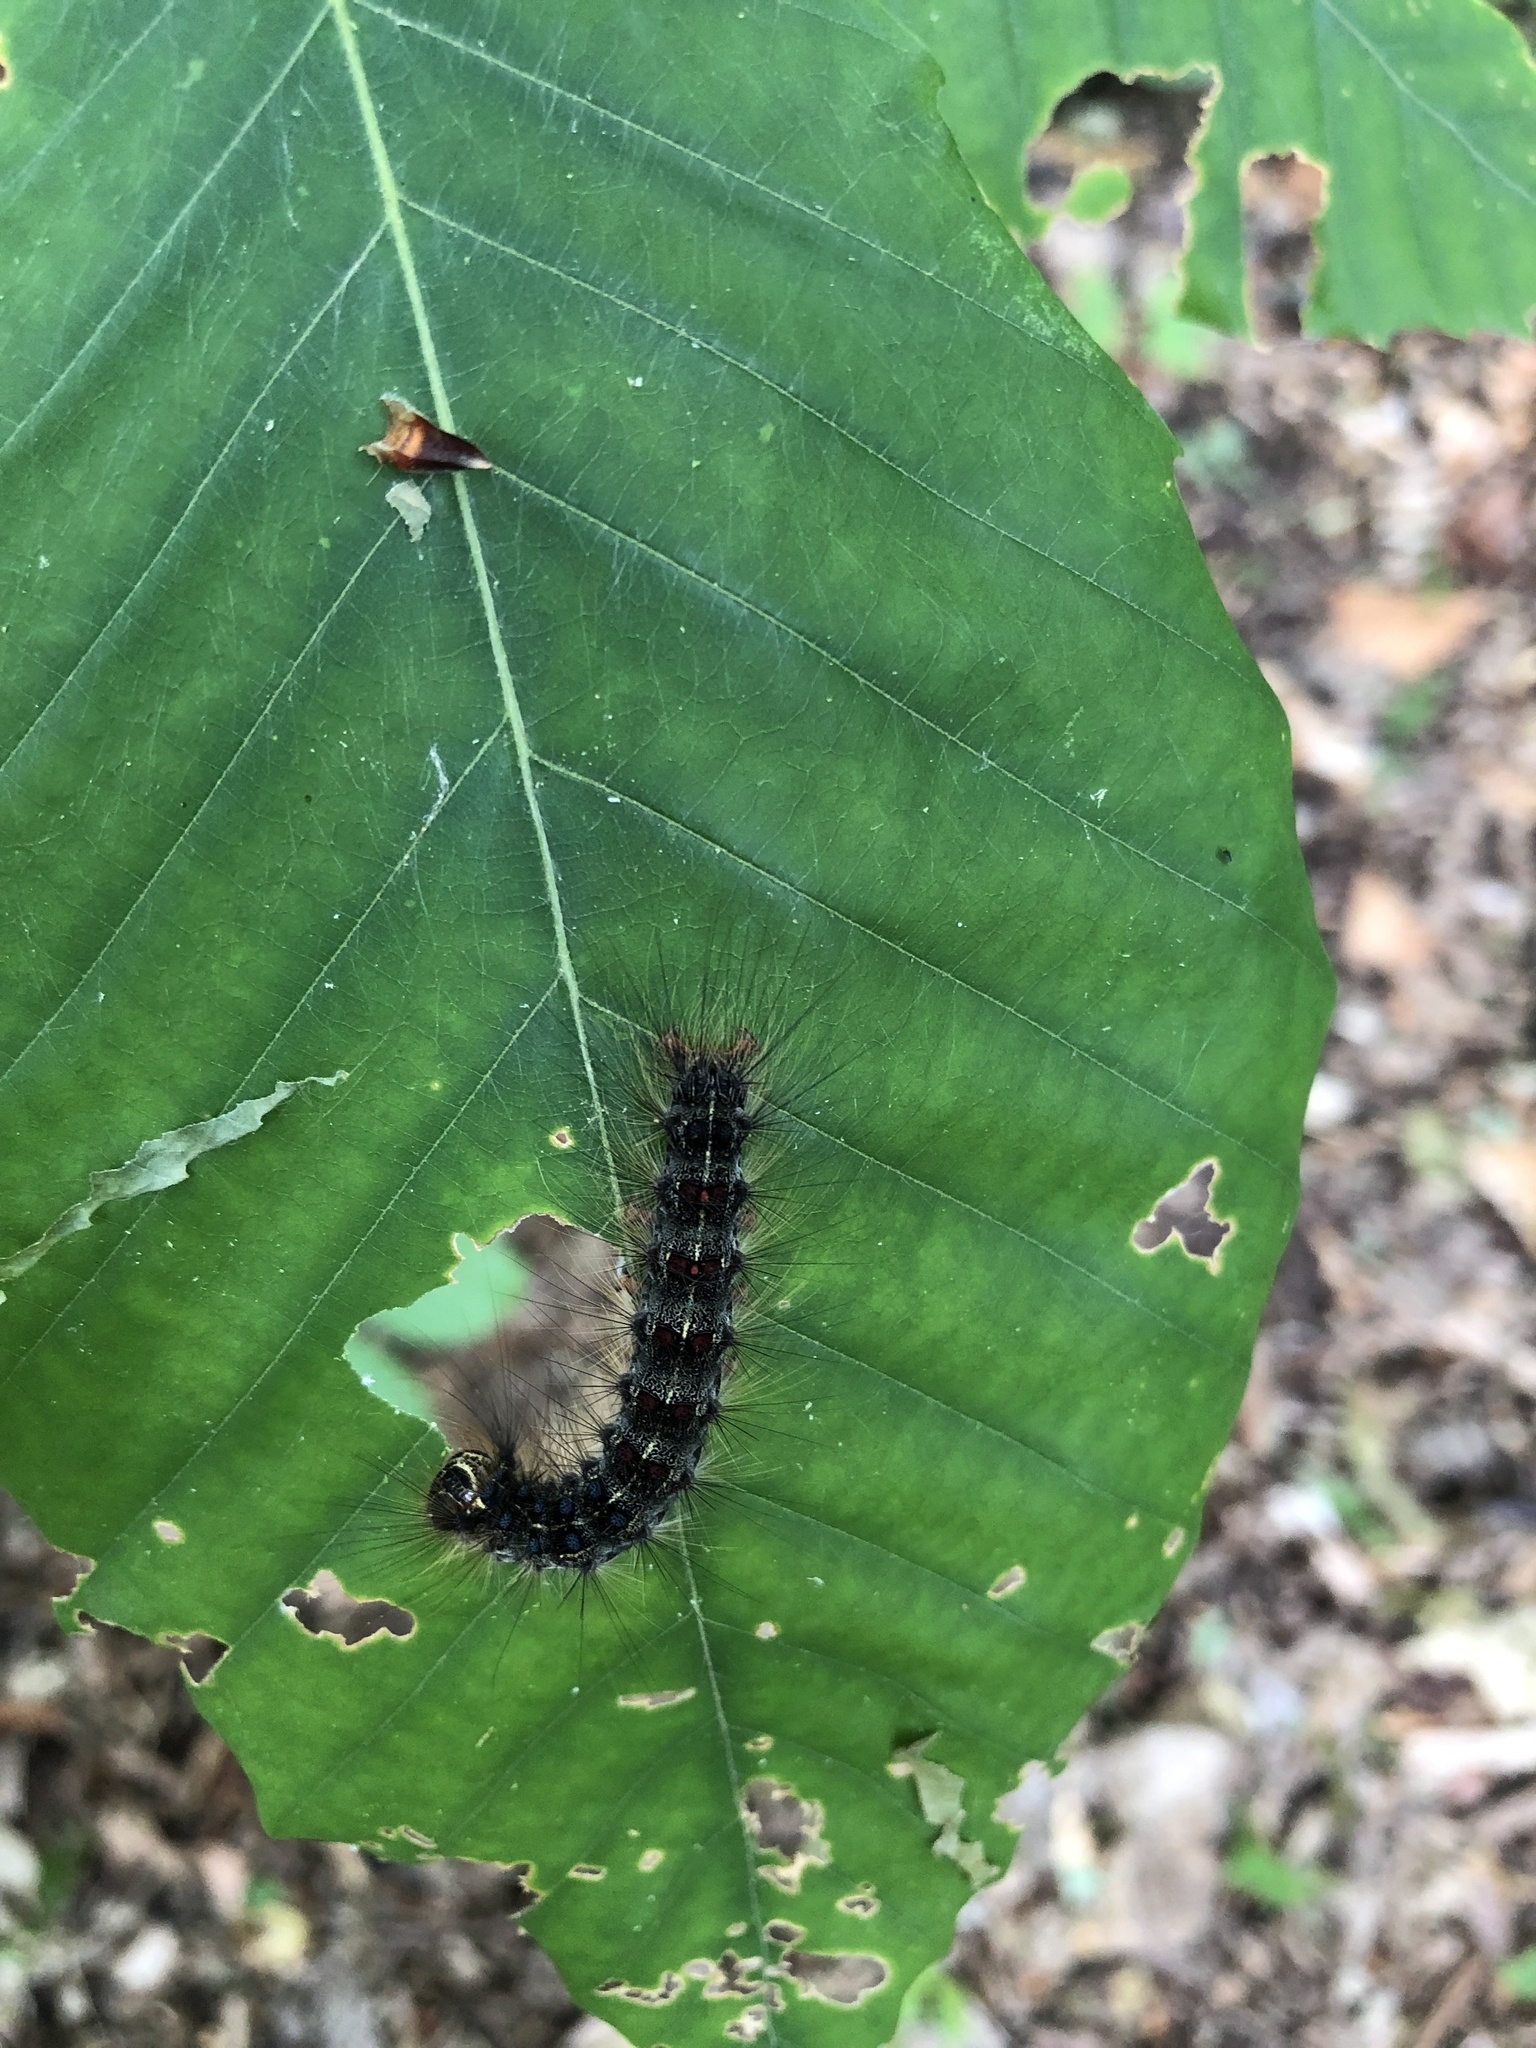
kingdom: Animalia
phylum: Arthropoda
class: Insecta
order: Lepidoptera
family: Erebidae
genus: Lymantria
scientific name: Lymantria dispar
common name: Gypsy moth
